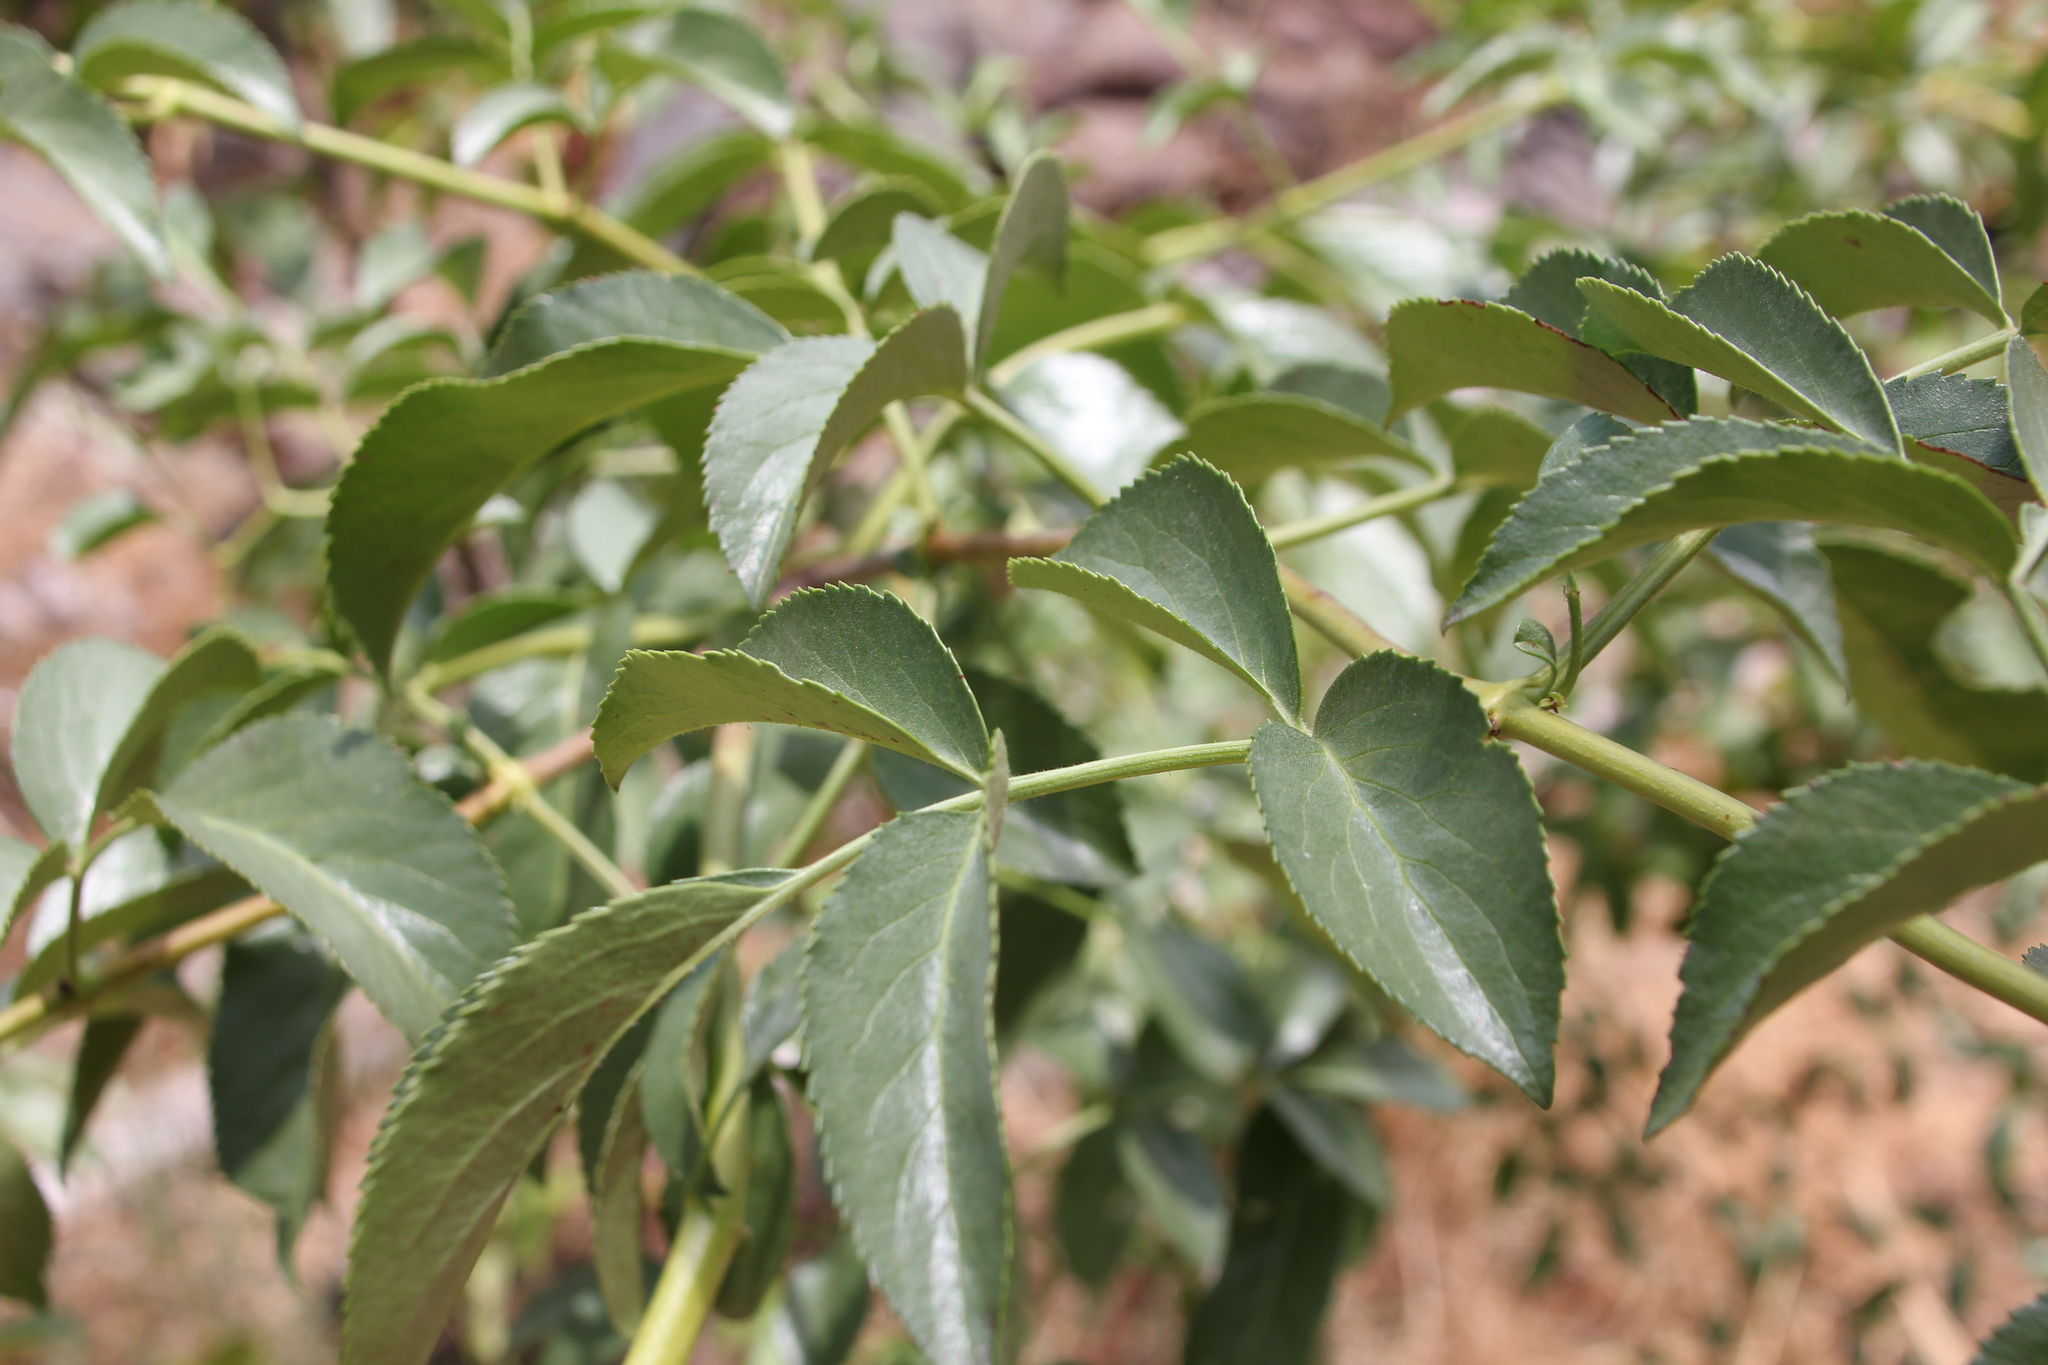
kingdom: Plantae
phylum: Tracheophyta
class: Magnoliopsida
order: Dipsacales
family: Viburnaceae
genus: Sambucus
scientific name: Sambucus cerulea
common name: Blue elder
